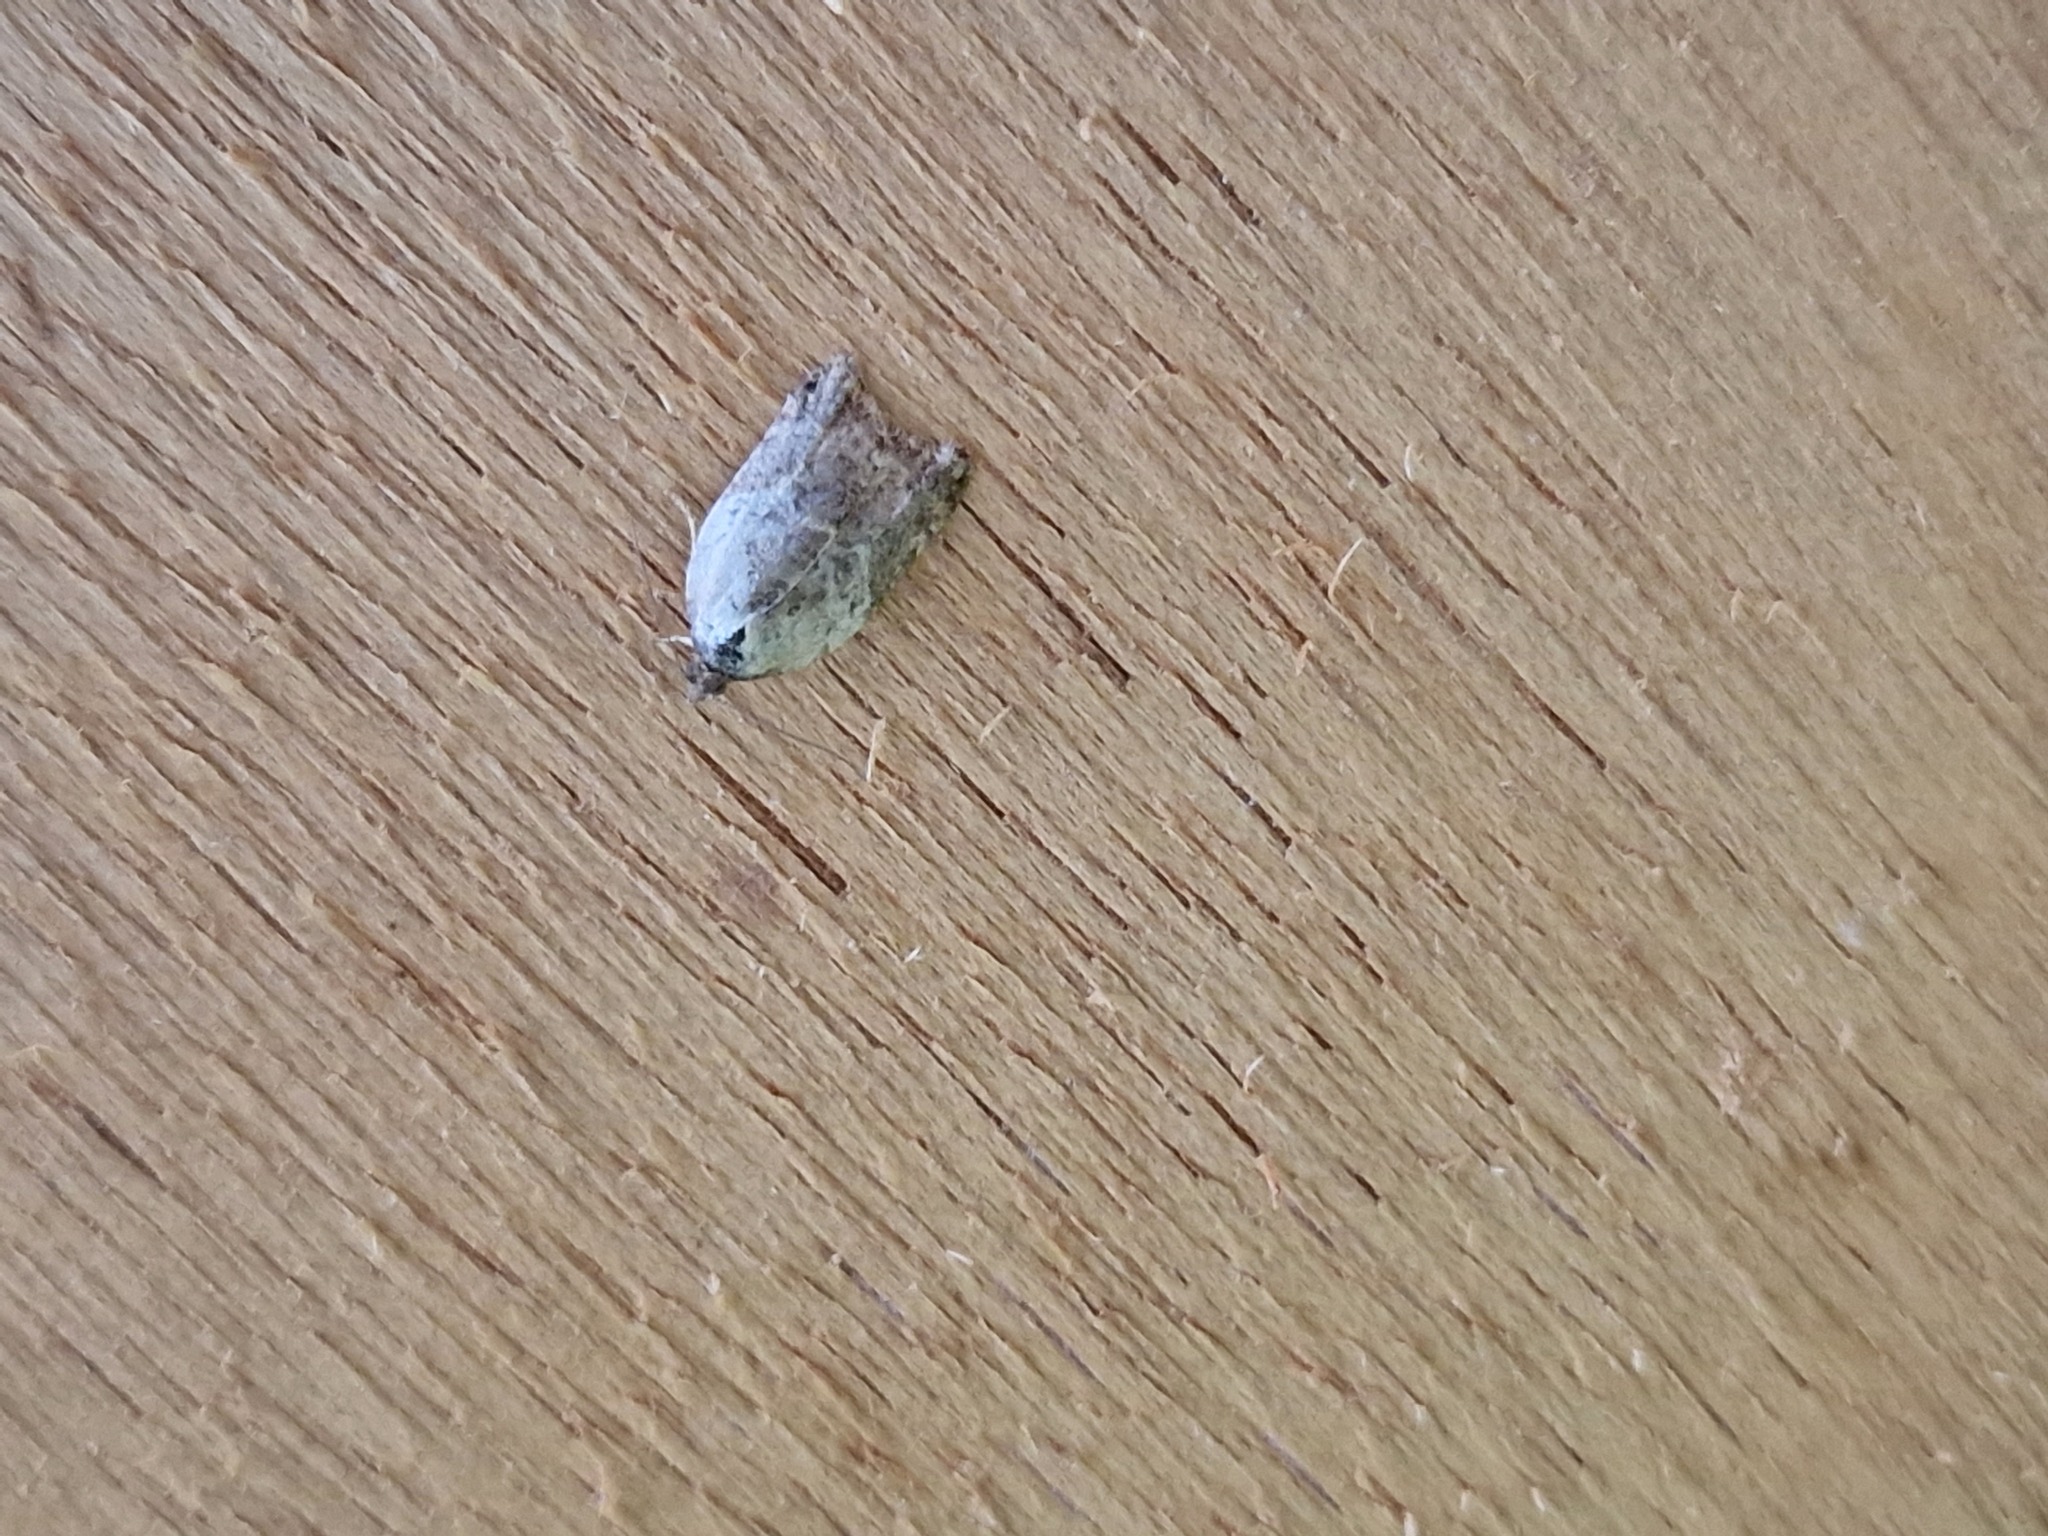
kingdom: Animalia
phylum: Arthropoda
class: Insecta
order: Lepidoptera
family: Tortricidae
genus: Acleris
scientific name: Acleris variegana
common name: Garden rose tortrix
